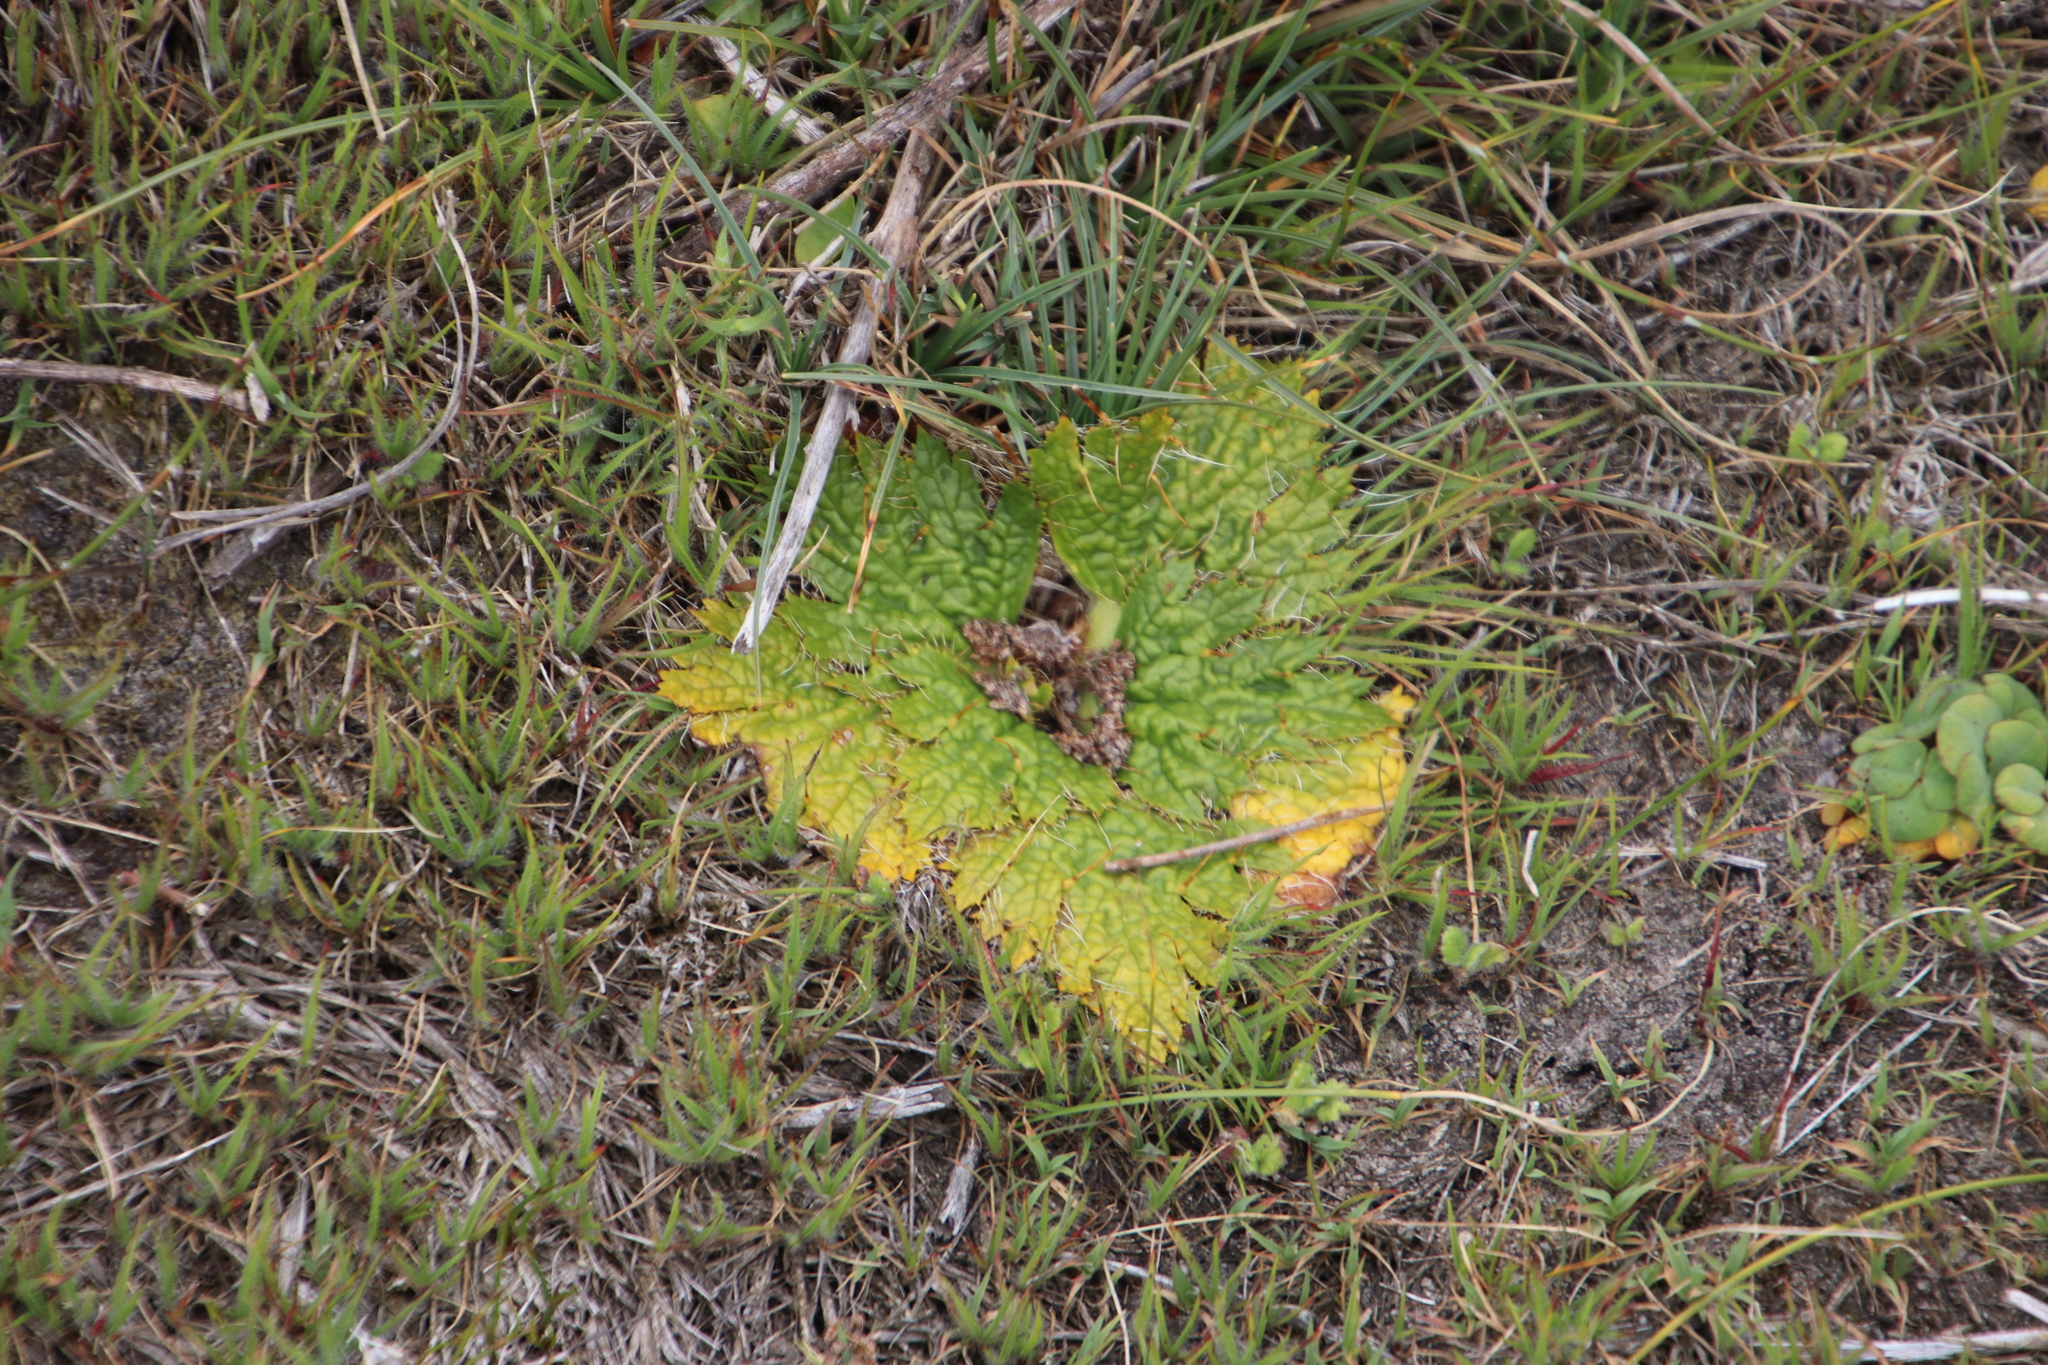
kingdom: Plantae
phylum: Tracheophyta
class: Magnoliopsida
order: Apiales
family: Apiaceae
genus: Arctopus
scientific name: Arctopus echinatus
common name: Platdoring
